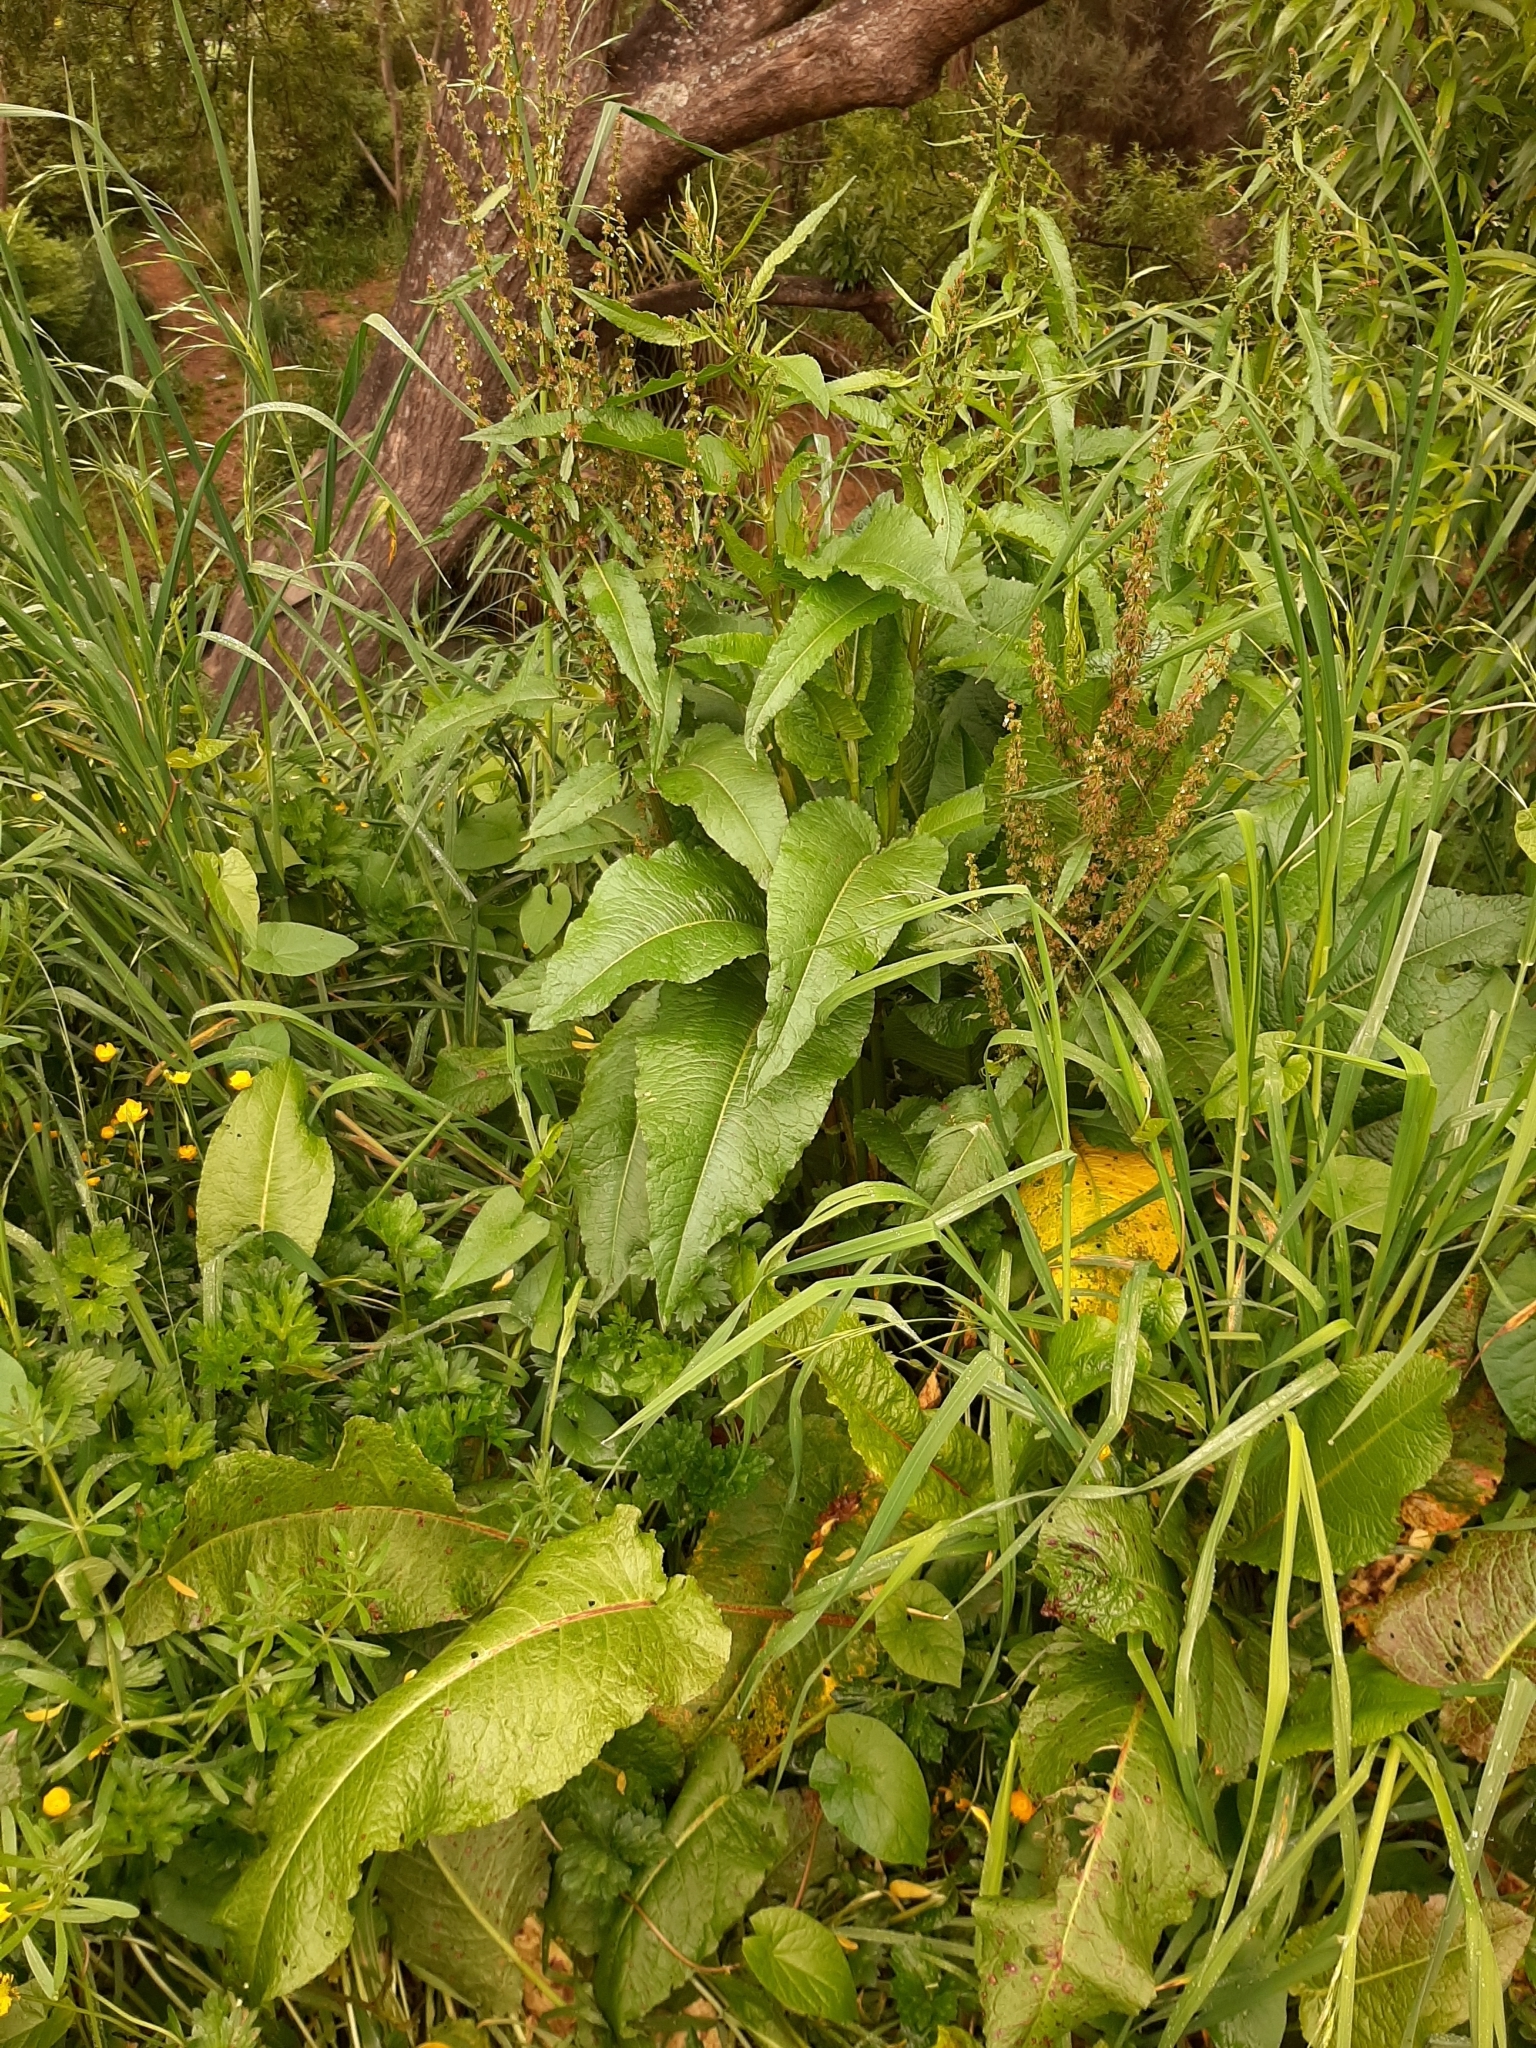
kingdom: Plantae
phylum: Tracheophyta
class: Magnoliopsida
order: Caryophyllales
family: Polygonaceae
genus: Rumex
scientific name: Rumex obtusifolius
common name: Bitter dock
